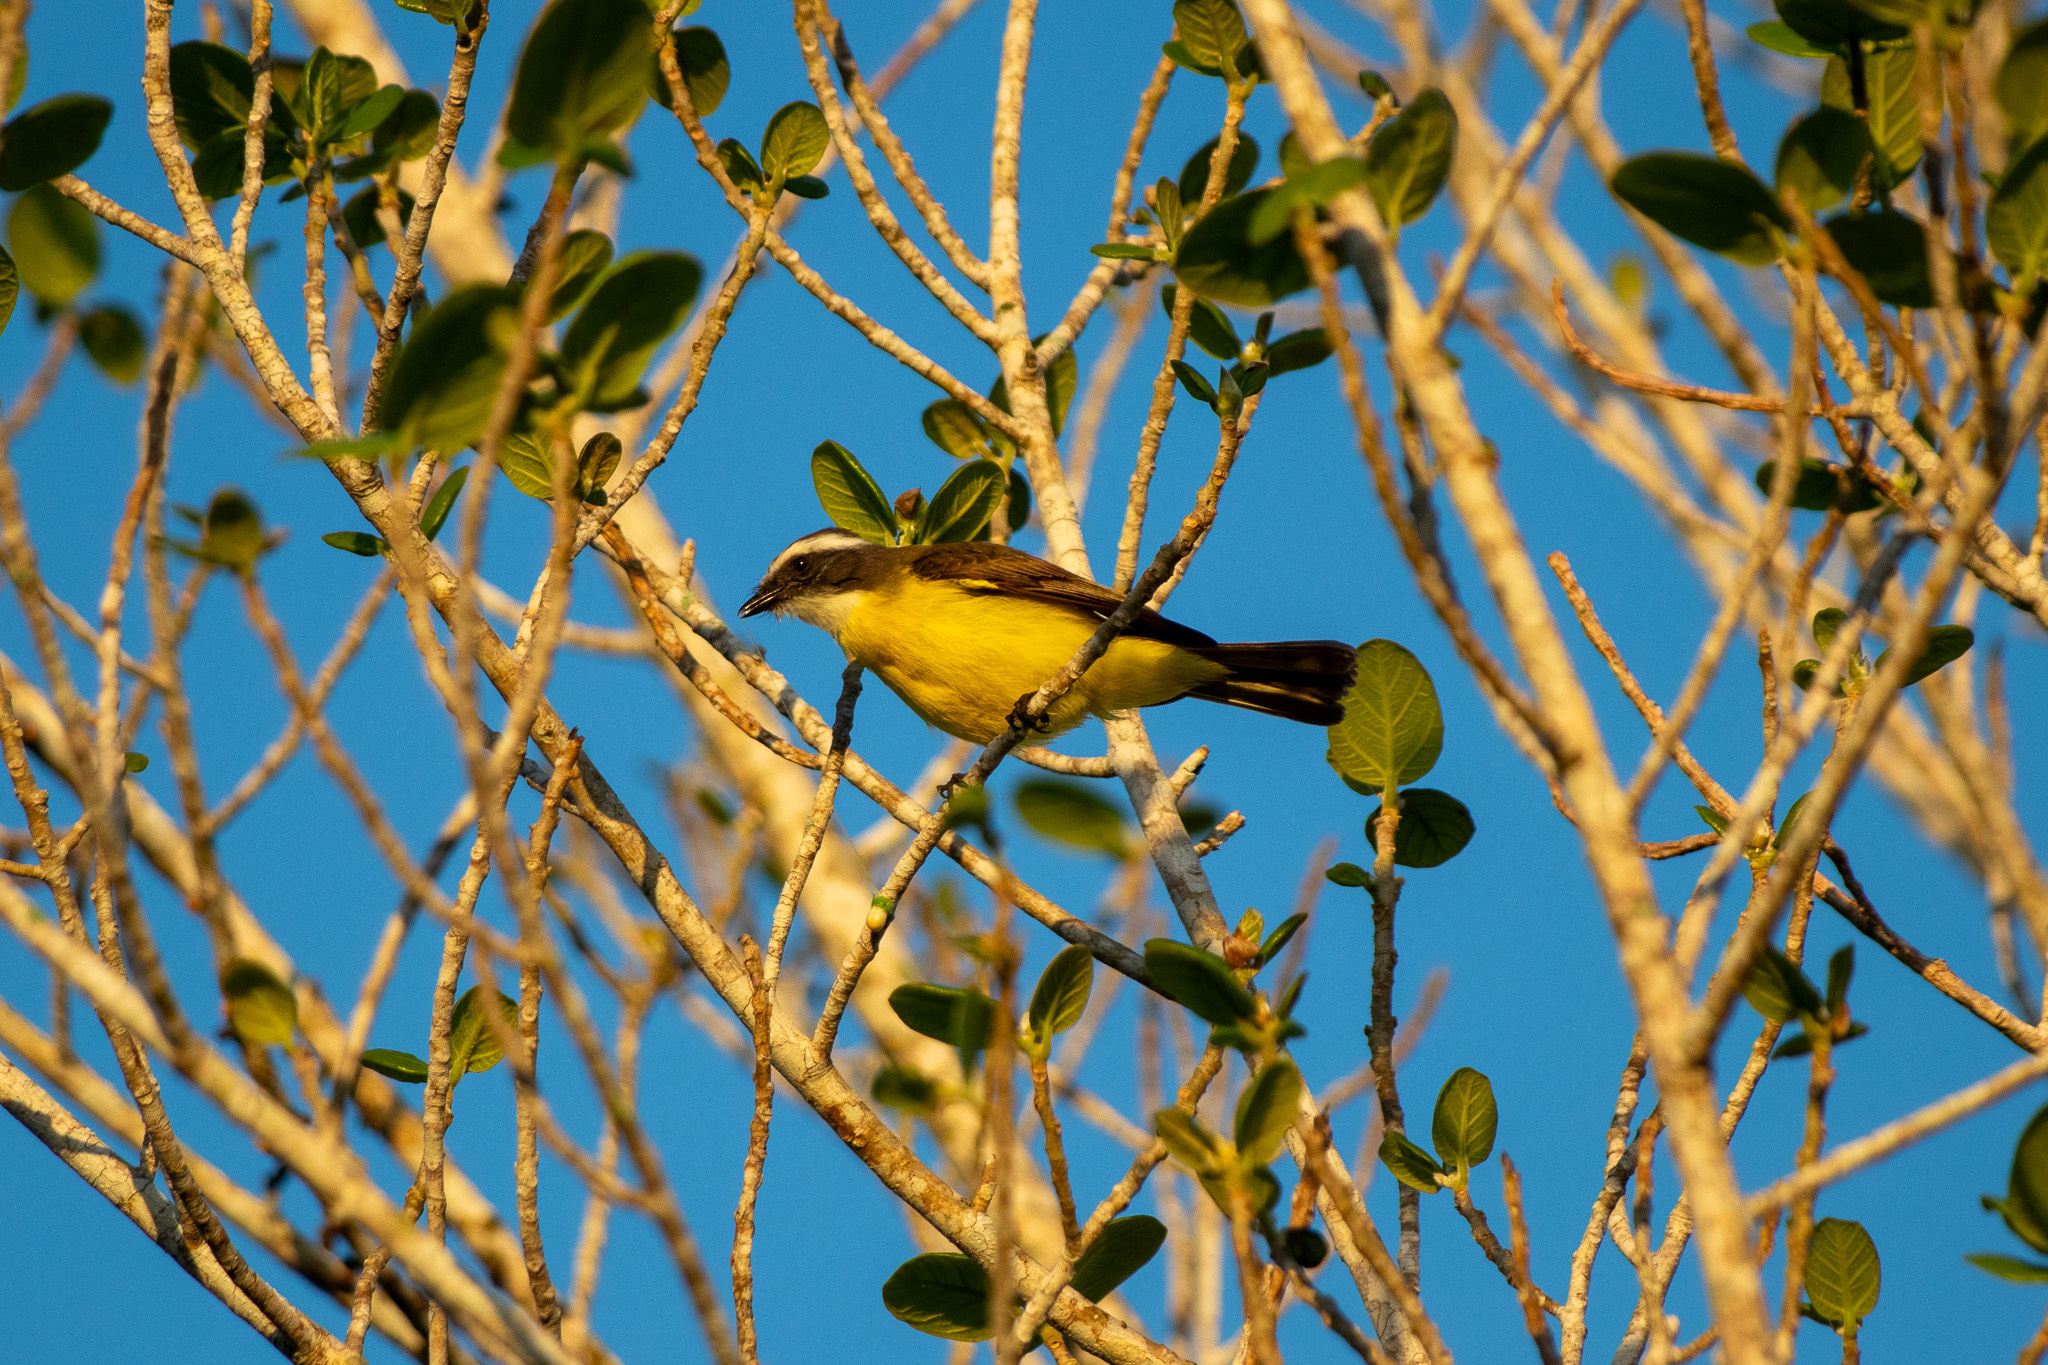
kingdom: Animalia
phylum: Chordata
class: Aves
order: Passeriformes
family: Tyrannidae
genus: Myiozetetes
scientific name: Myiozetetes similis
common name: Social flycatcher
